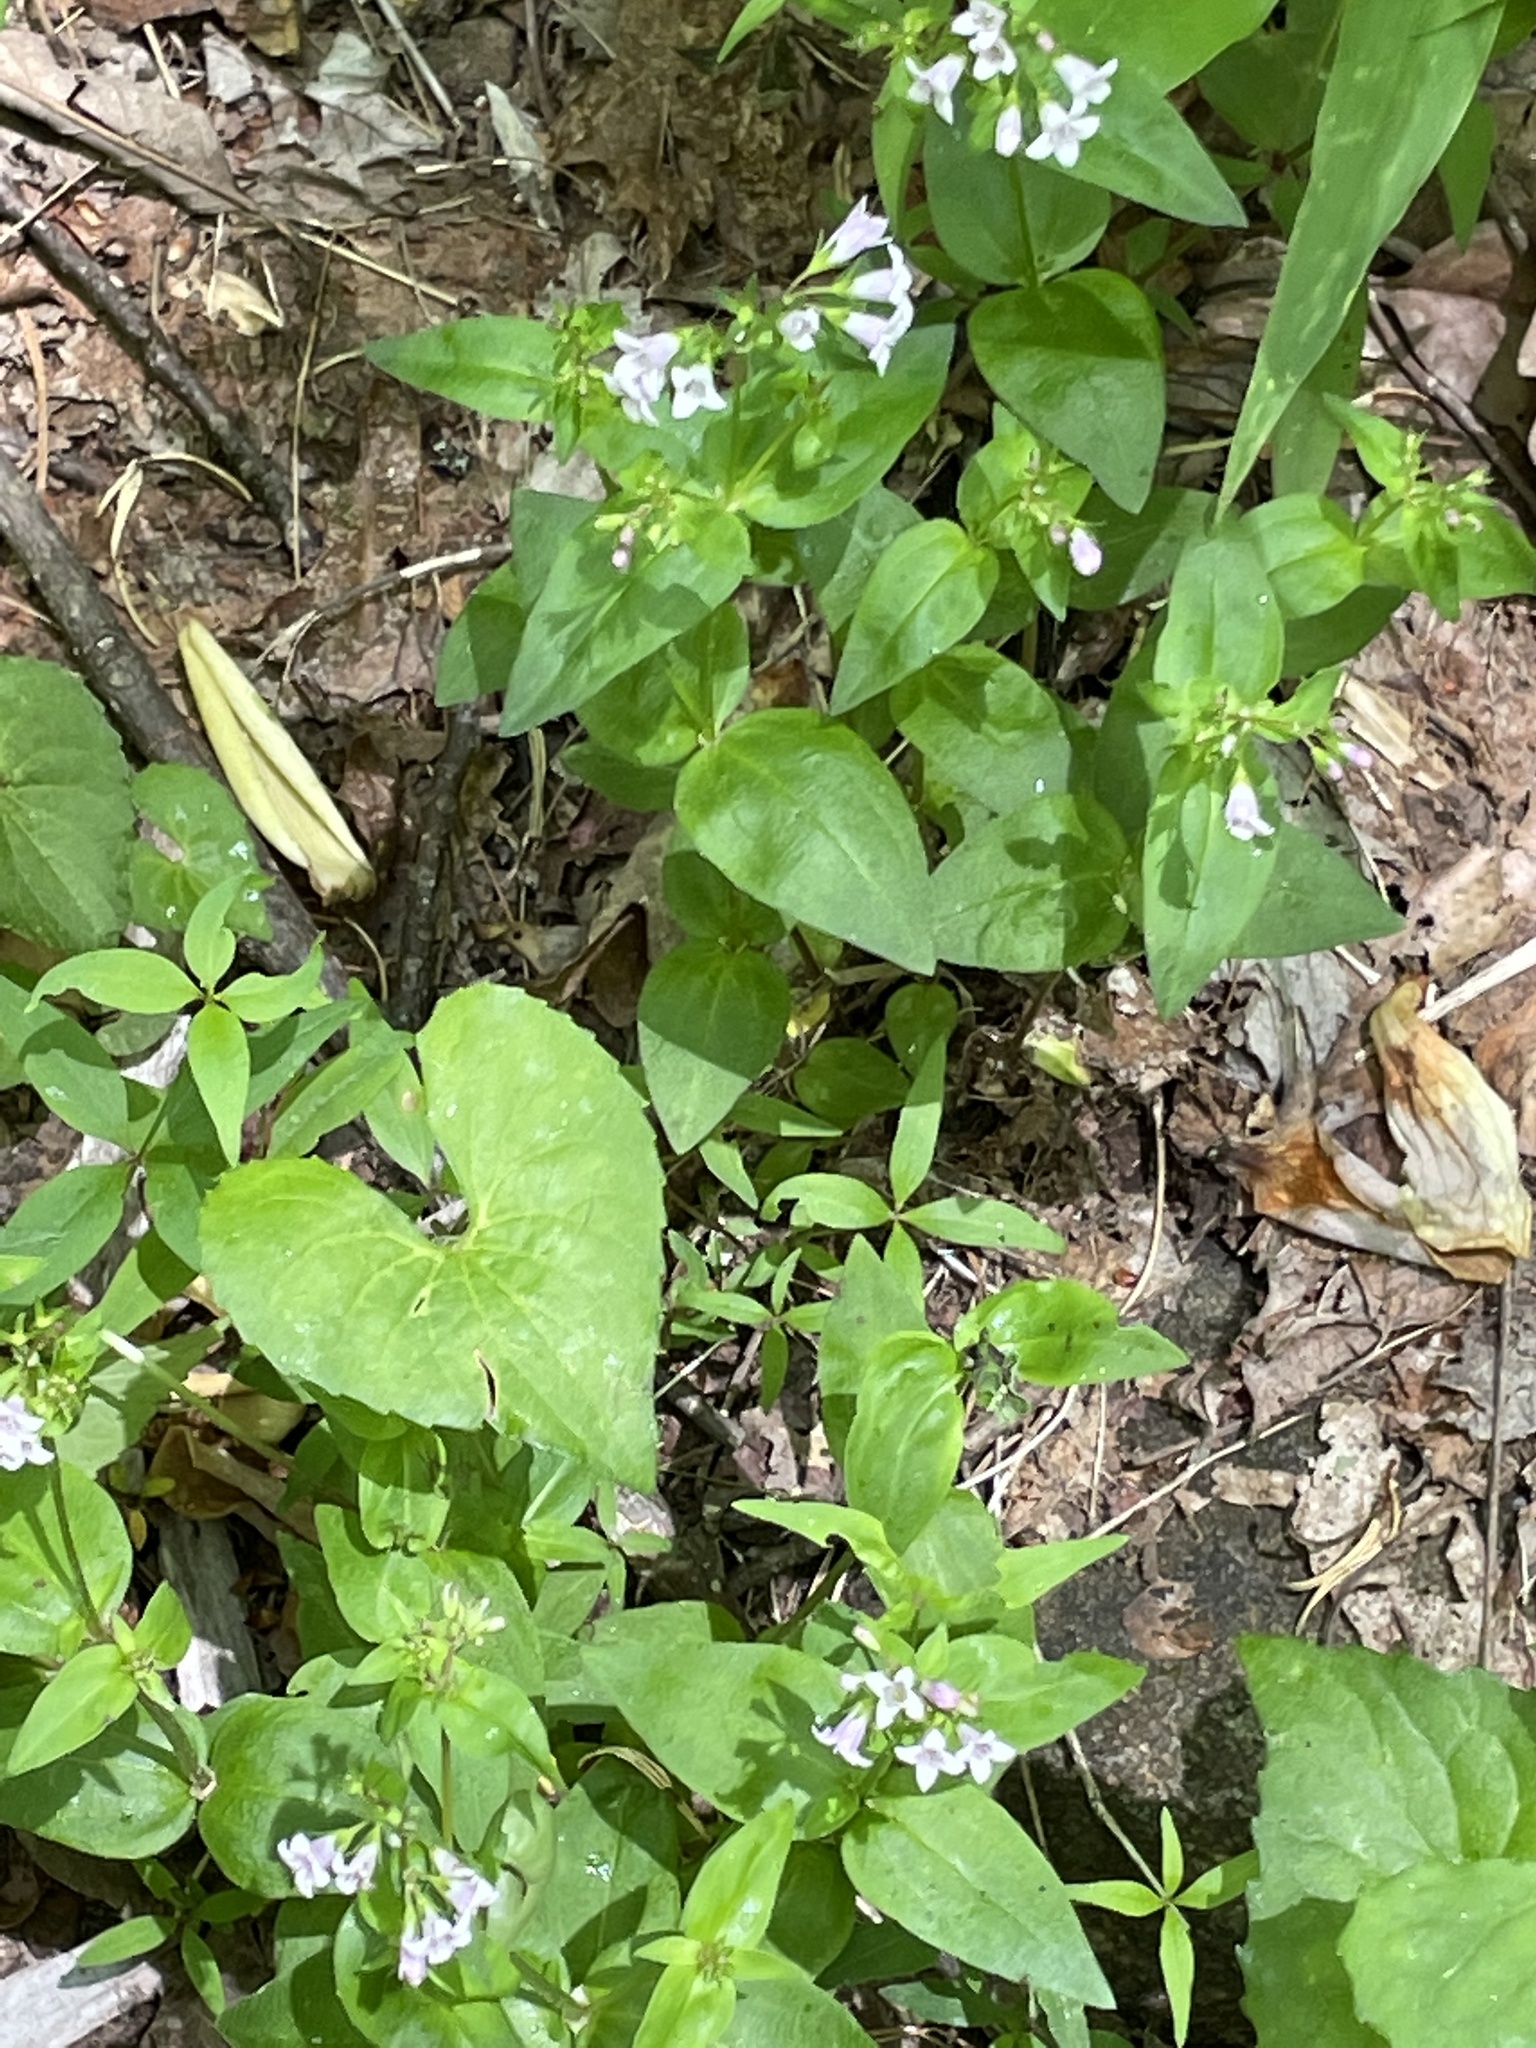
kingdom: Plantae
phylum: Tracheophyta
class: Magnoliopsida
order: Gentianales
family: Rubiaceae
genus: Houstonia
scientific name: Houstonia purpurea
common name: Summer bluet
